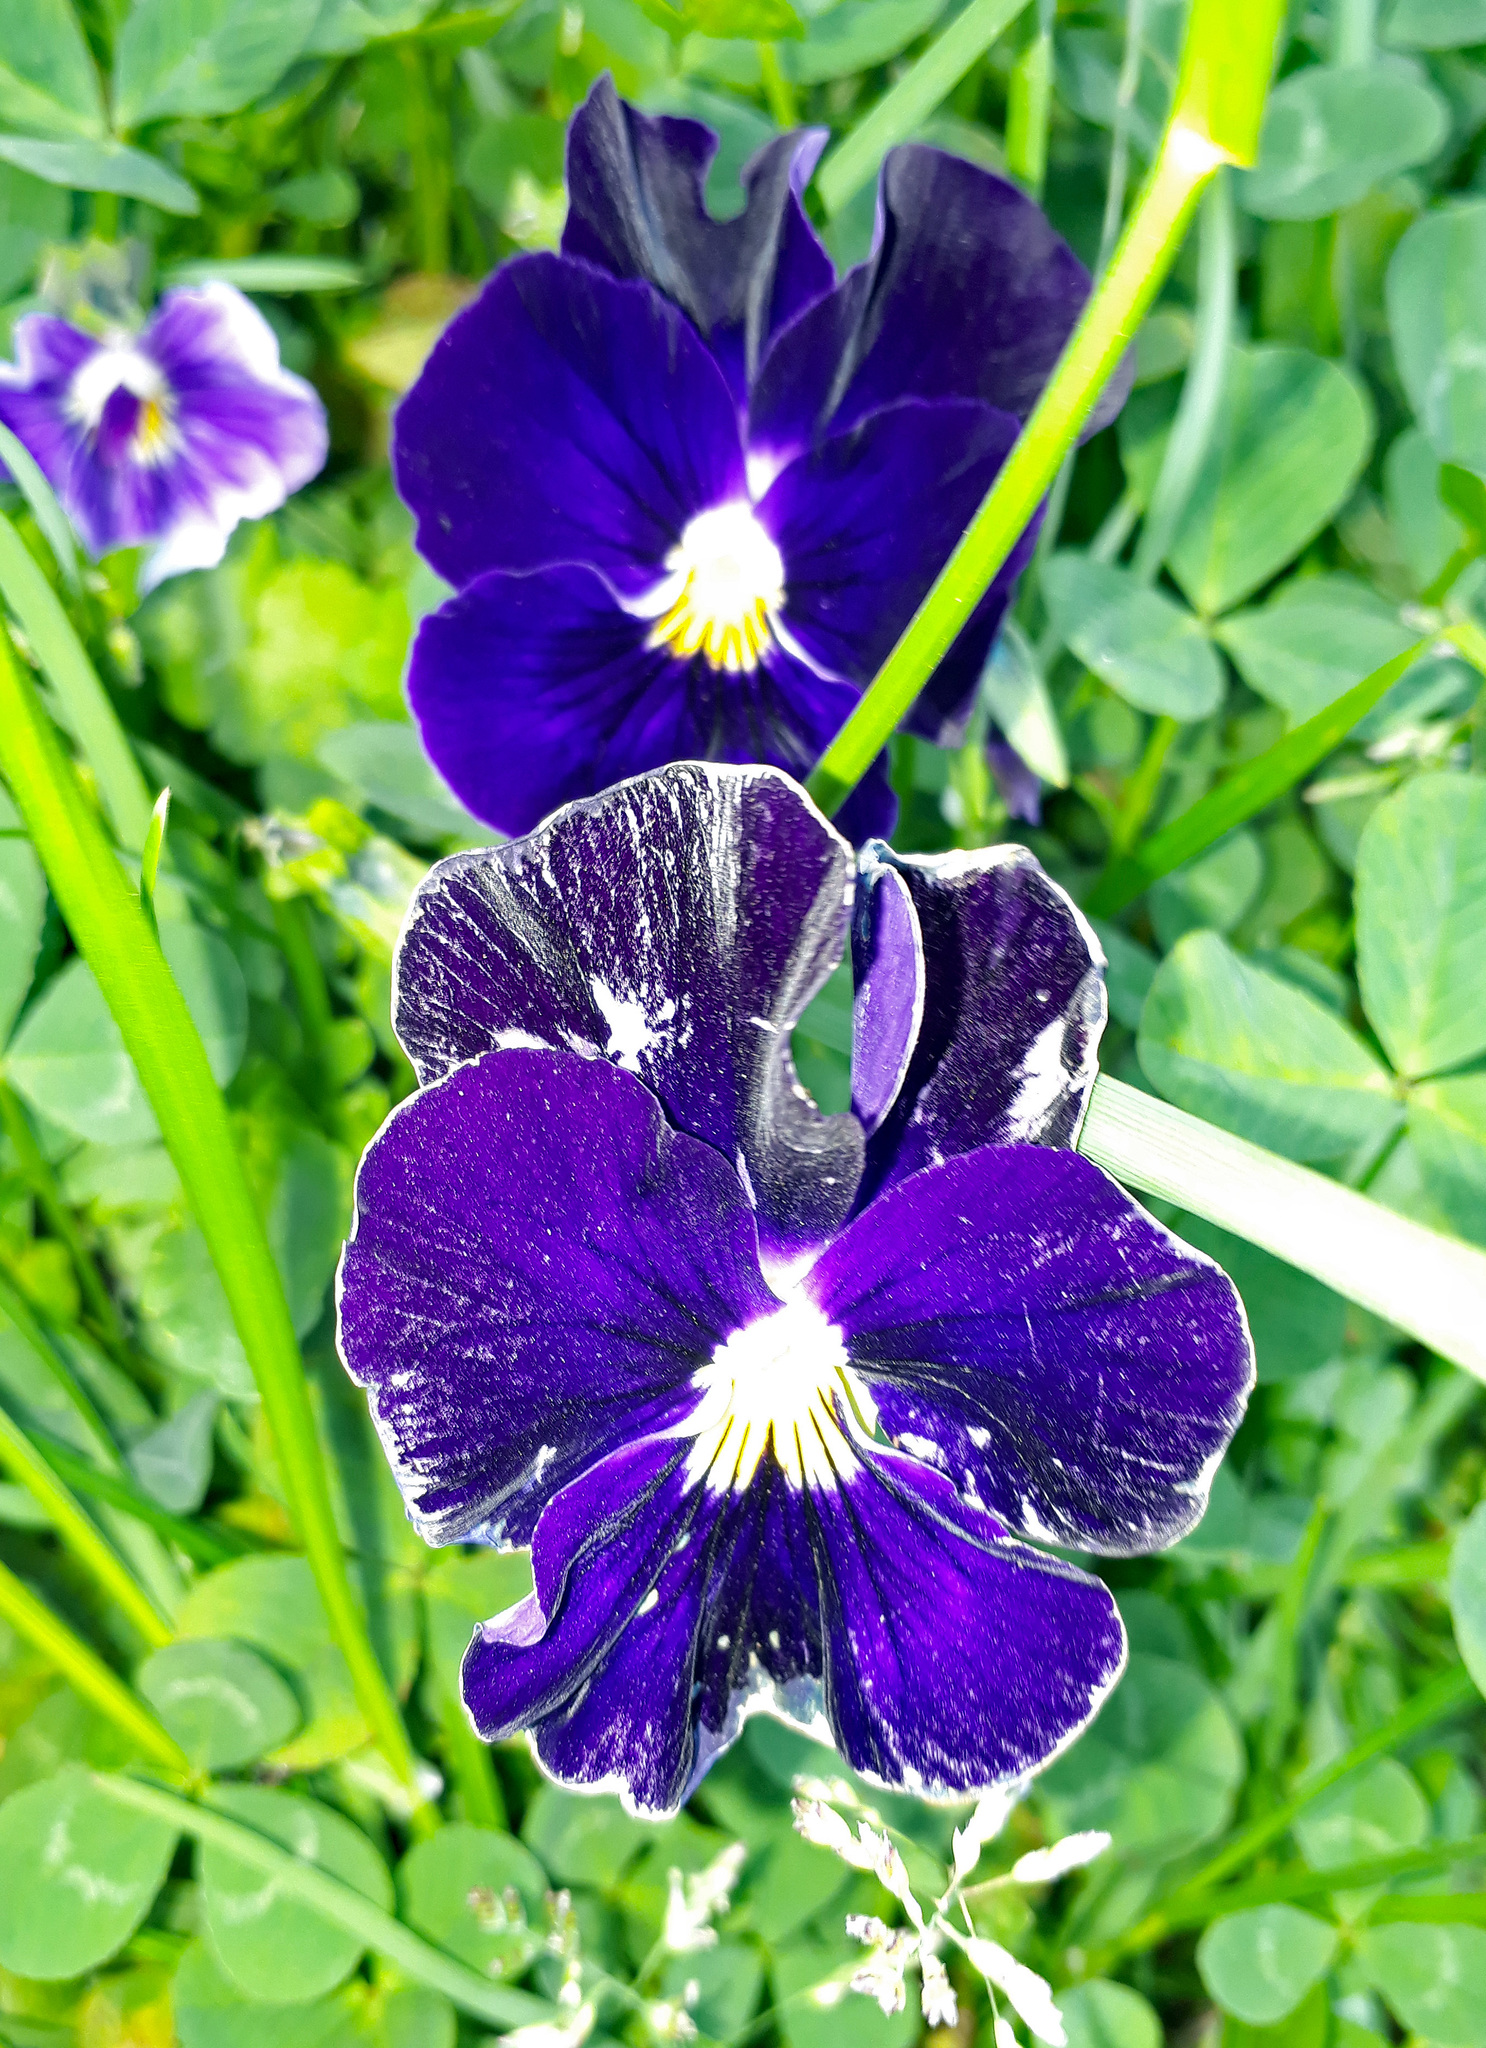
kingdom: Plantae
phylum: Tracheophyta
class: Magnoliopsida
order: Malpighiales
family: Violaceae
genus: Viola
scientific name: Viola wittrockiana
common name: Garden pansy
